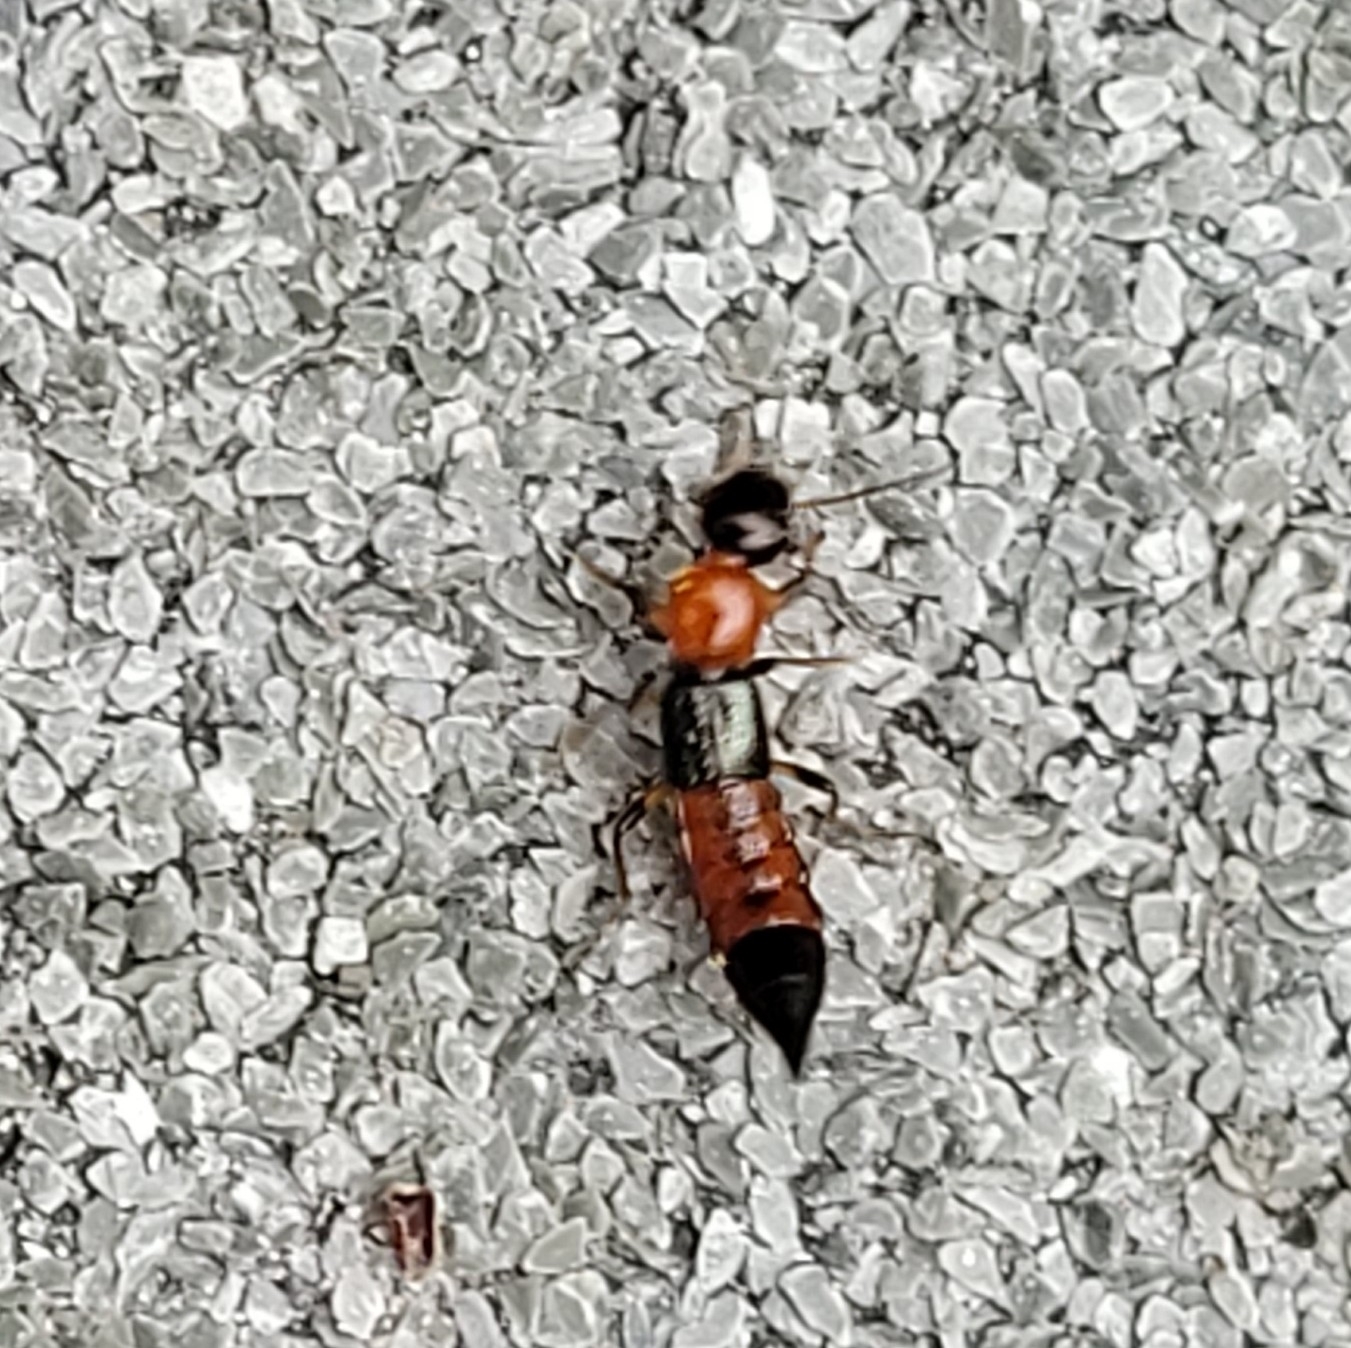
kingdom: Animalia
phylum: Arthropoda
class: Insecta
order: Coleoptera
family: Staphylinidae
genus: Paederus
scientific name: Paederus littoralis
